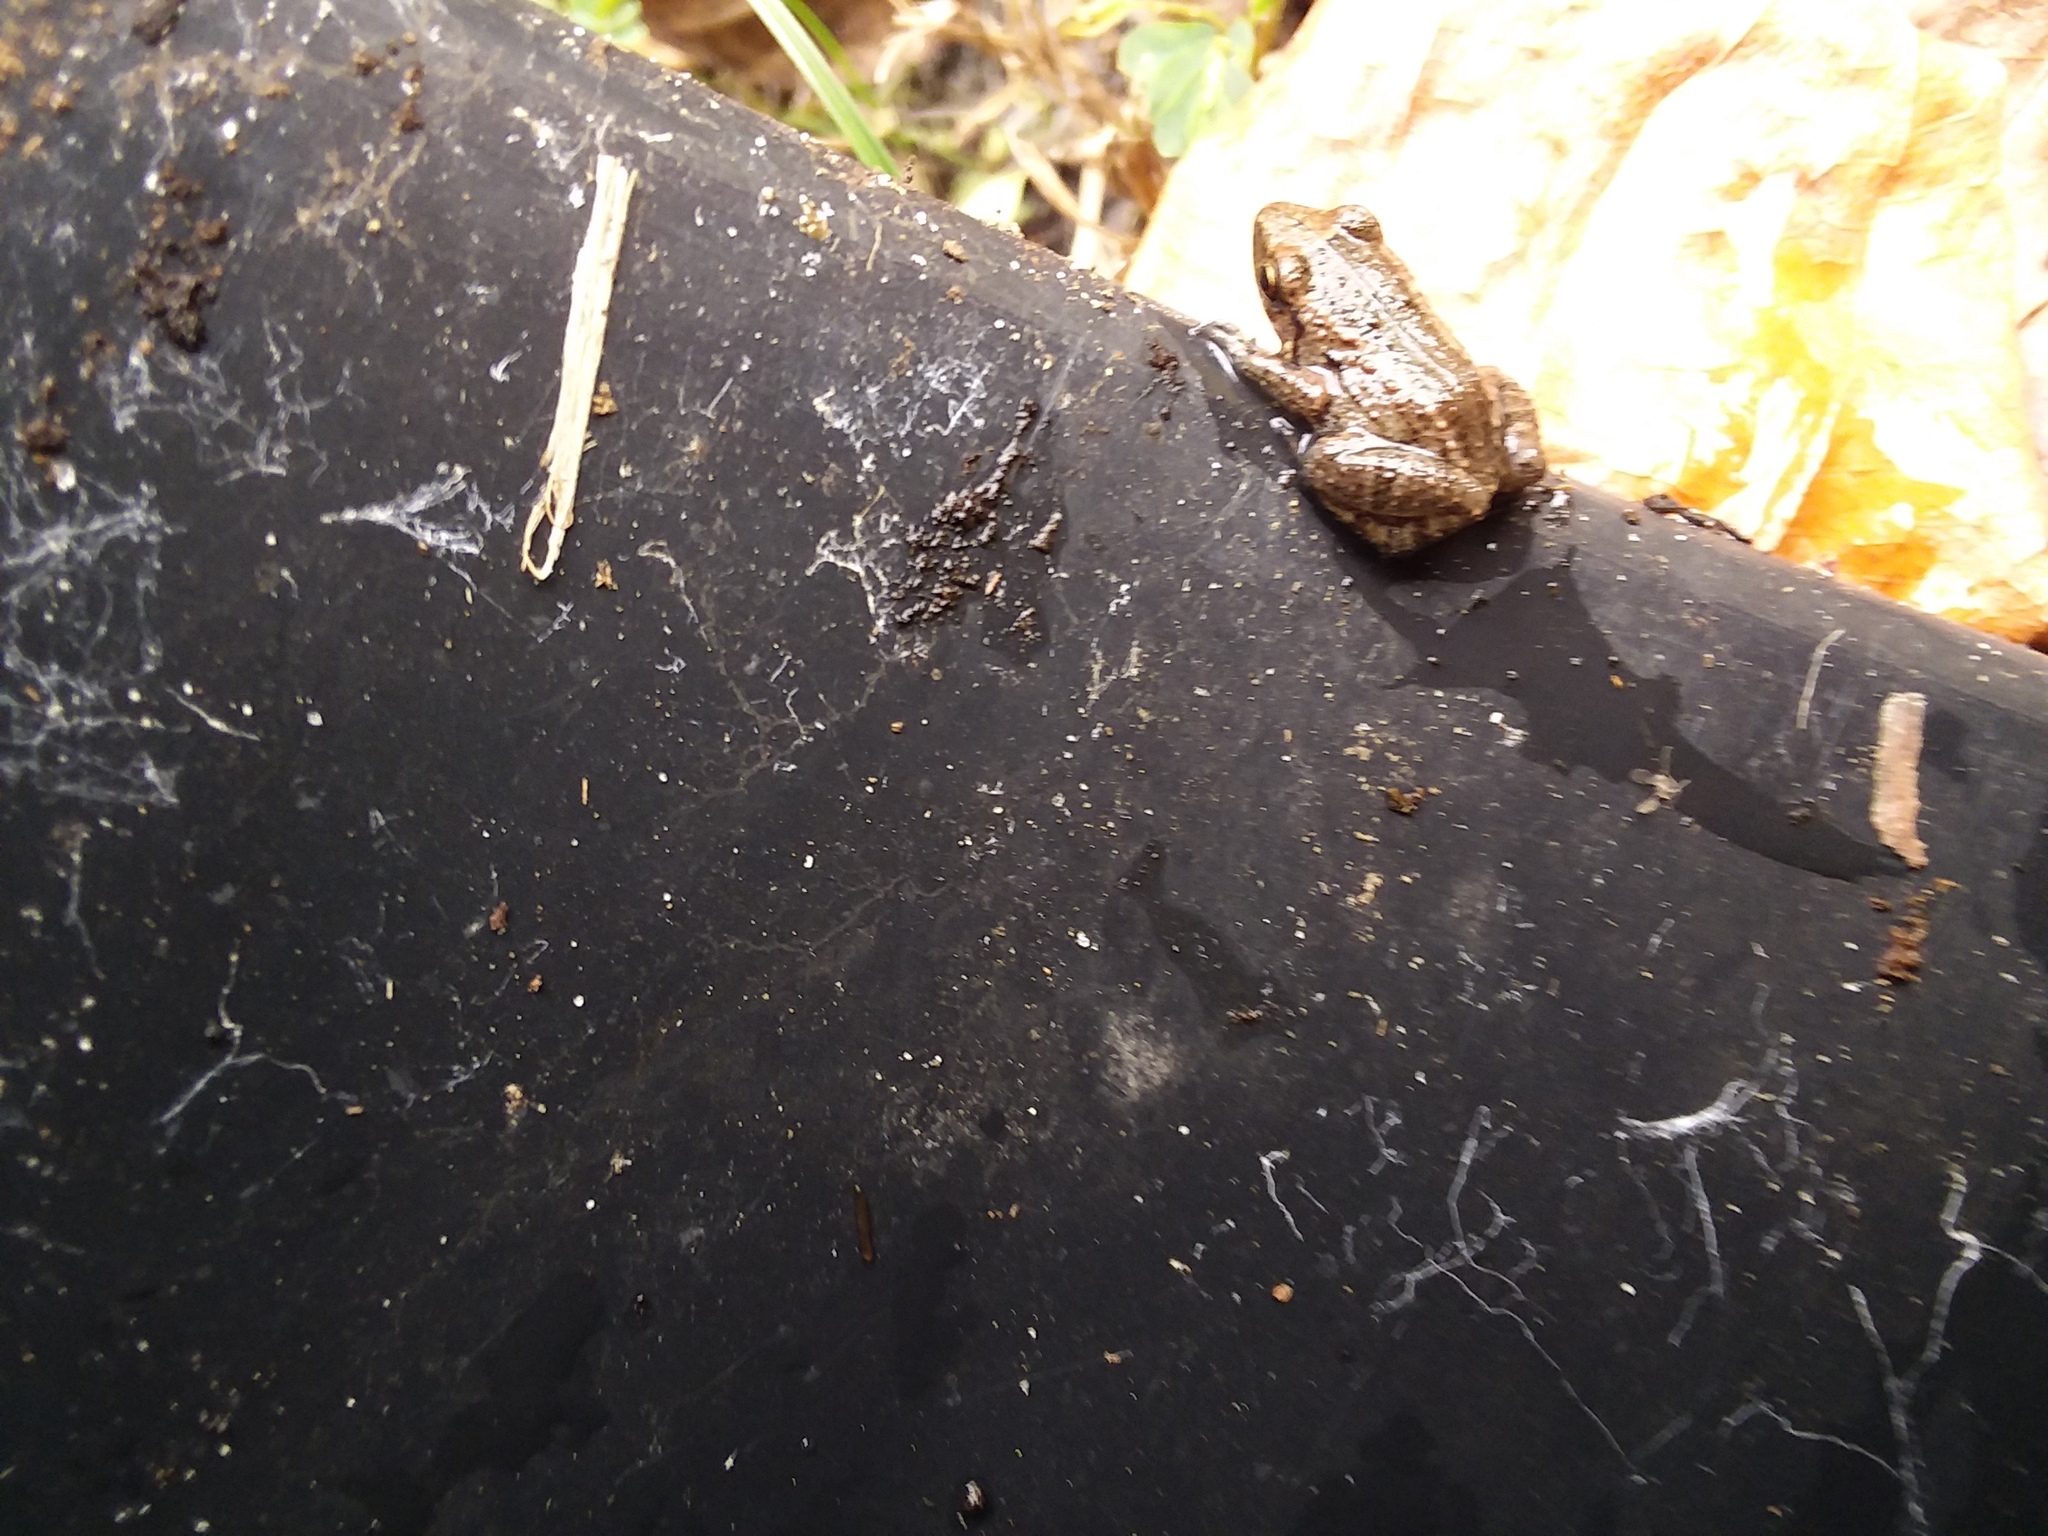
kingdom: Animalia
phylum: Chordata
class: Amphibia
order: Anura
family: Eleutherodactylidae
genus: Eleutherodactylus
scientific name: Eleutherodactylus planirostris
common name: Greenhouse frog
